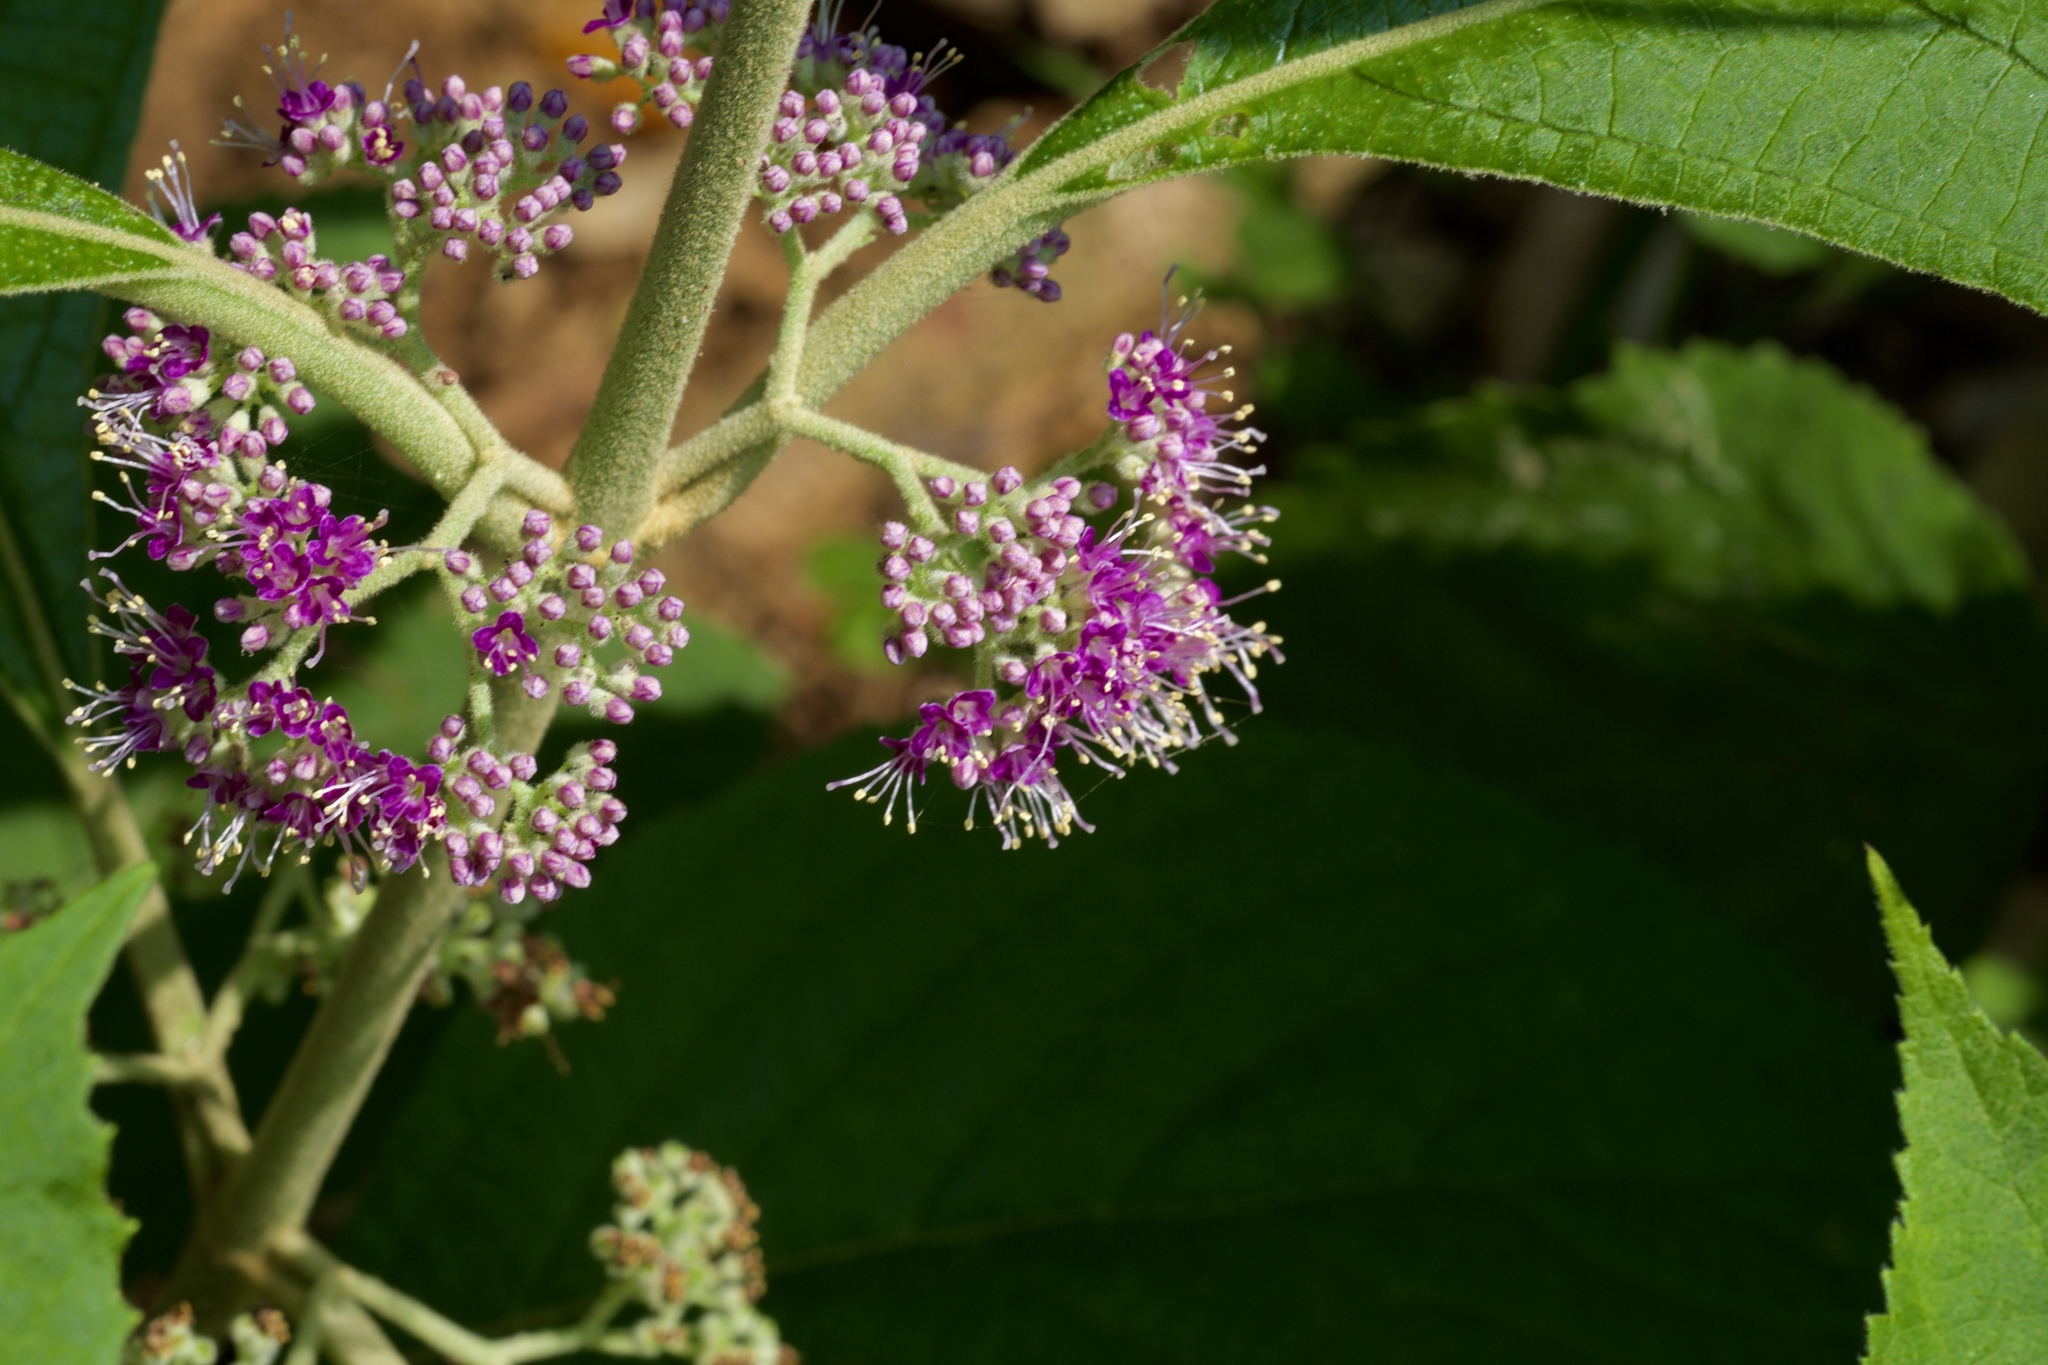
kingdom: Plantae
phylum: Tracheophyta
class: Magnoliopsida
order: Lamiales
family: Lamiaceae
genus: Callicarpa
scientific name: Callicarpa tomentosa
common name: Great woolly malayan-lilac
